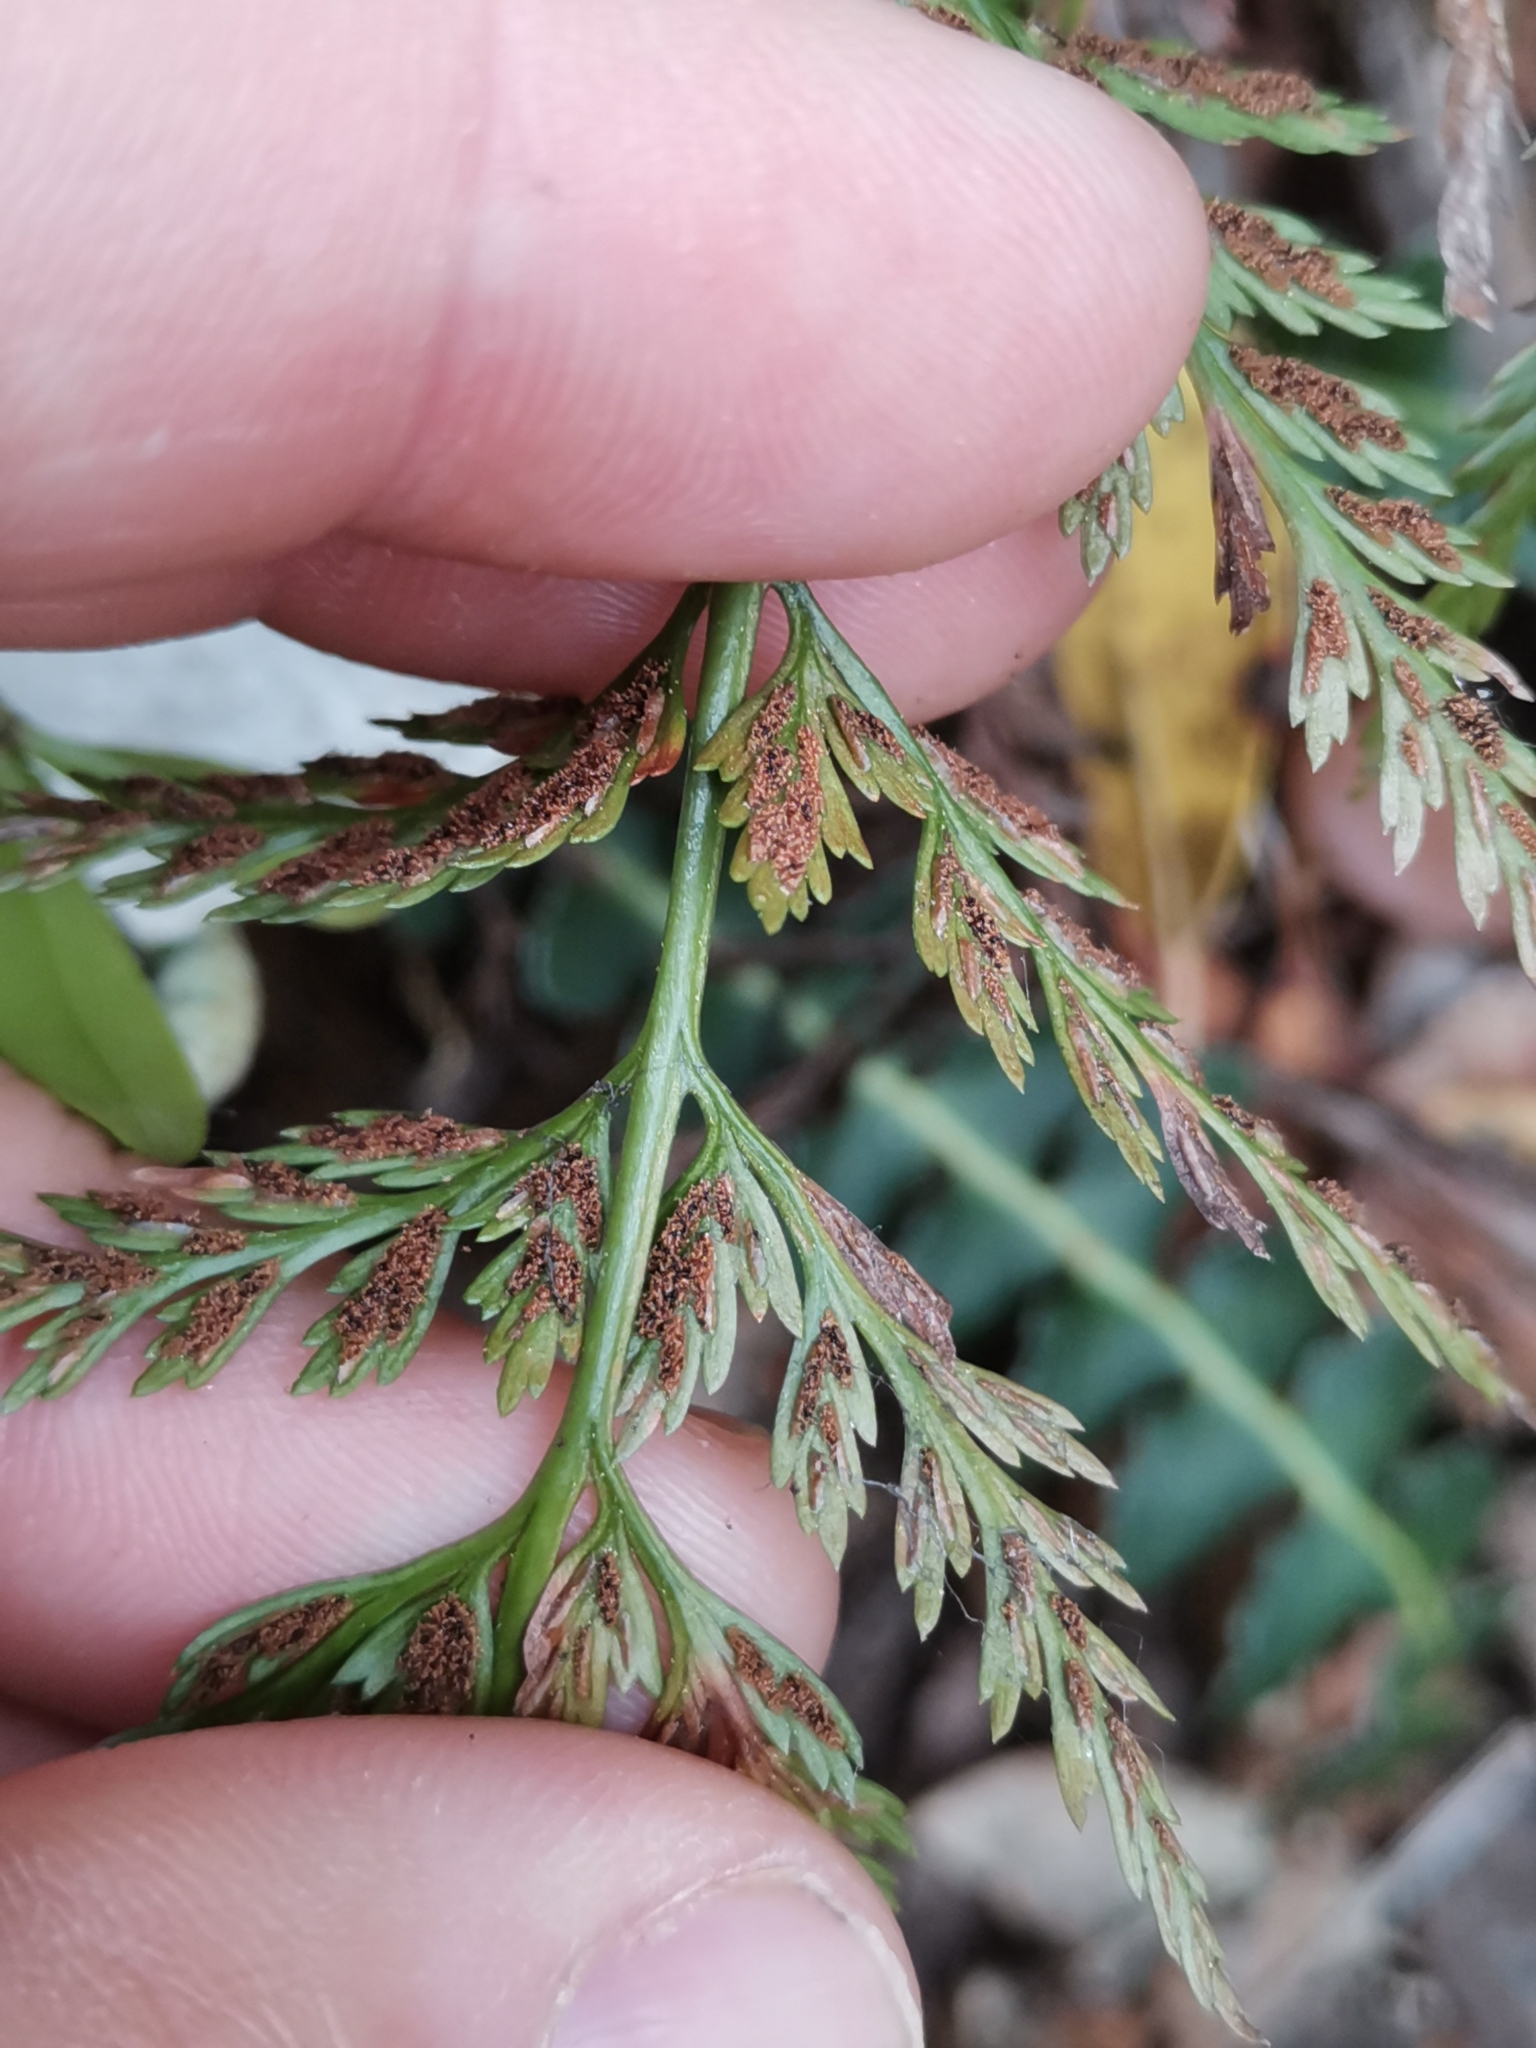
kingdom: Plantae
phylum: Tracheophyta
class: Polypodiopsida
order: Polypodiales
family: Aspleniaceae
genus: Asplenium
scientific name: Asplenium onopteris
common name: Irish spleenwort
